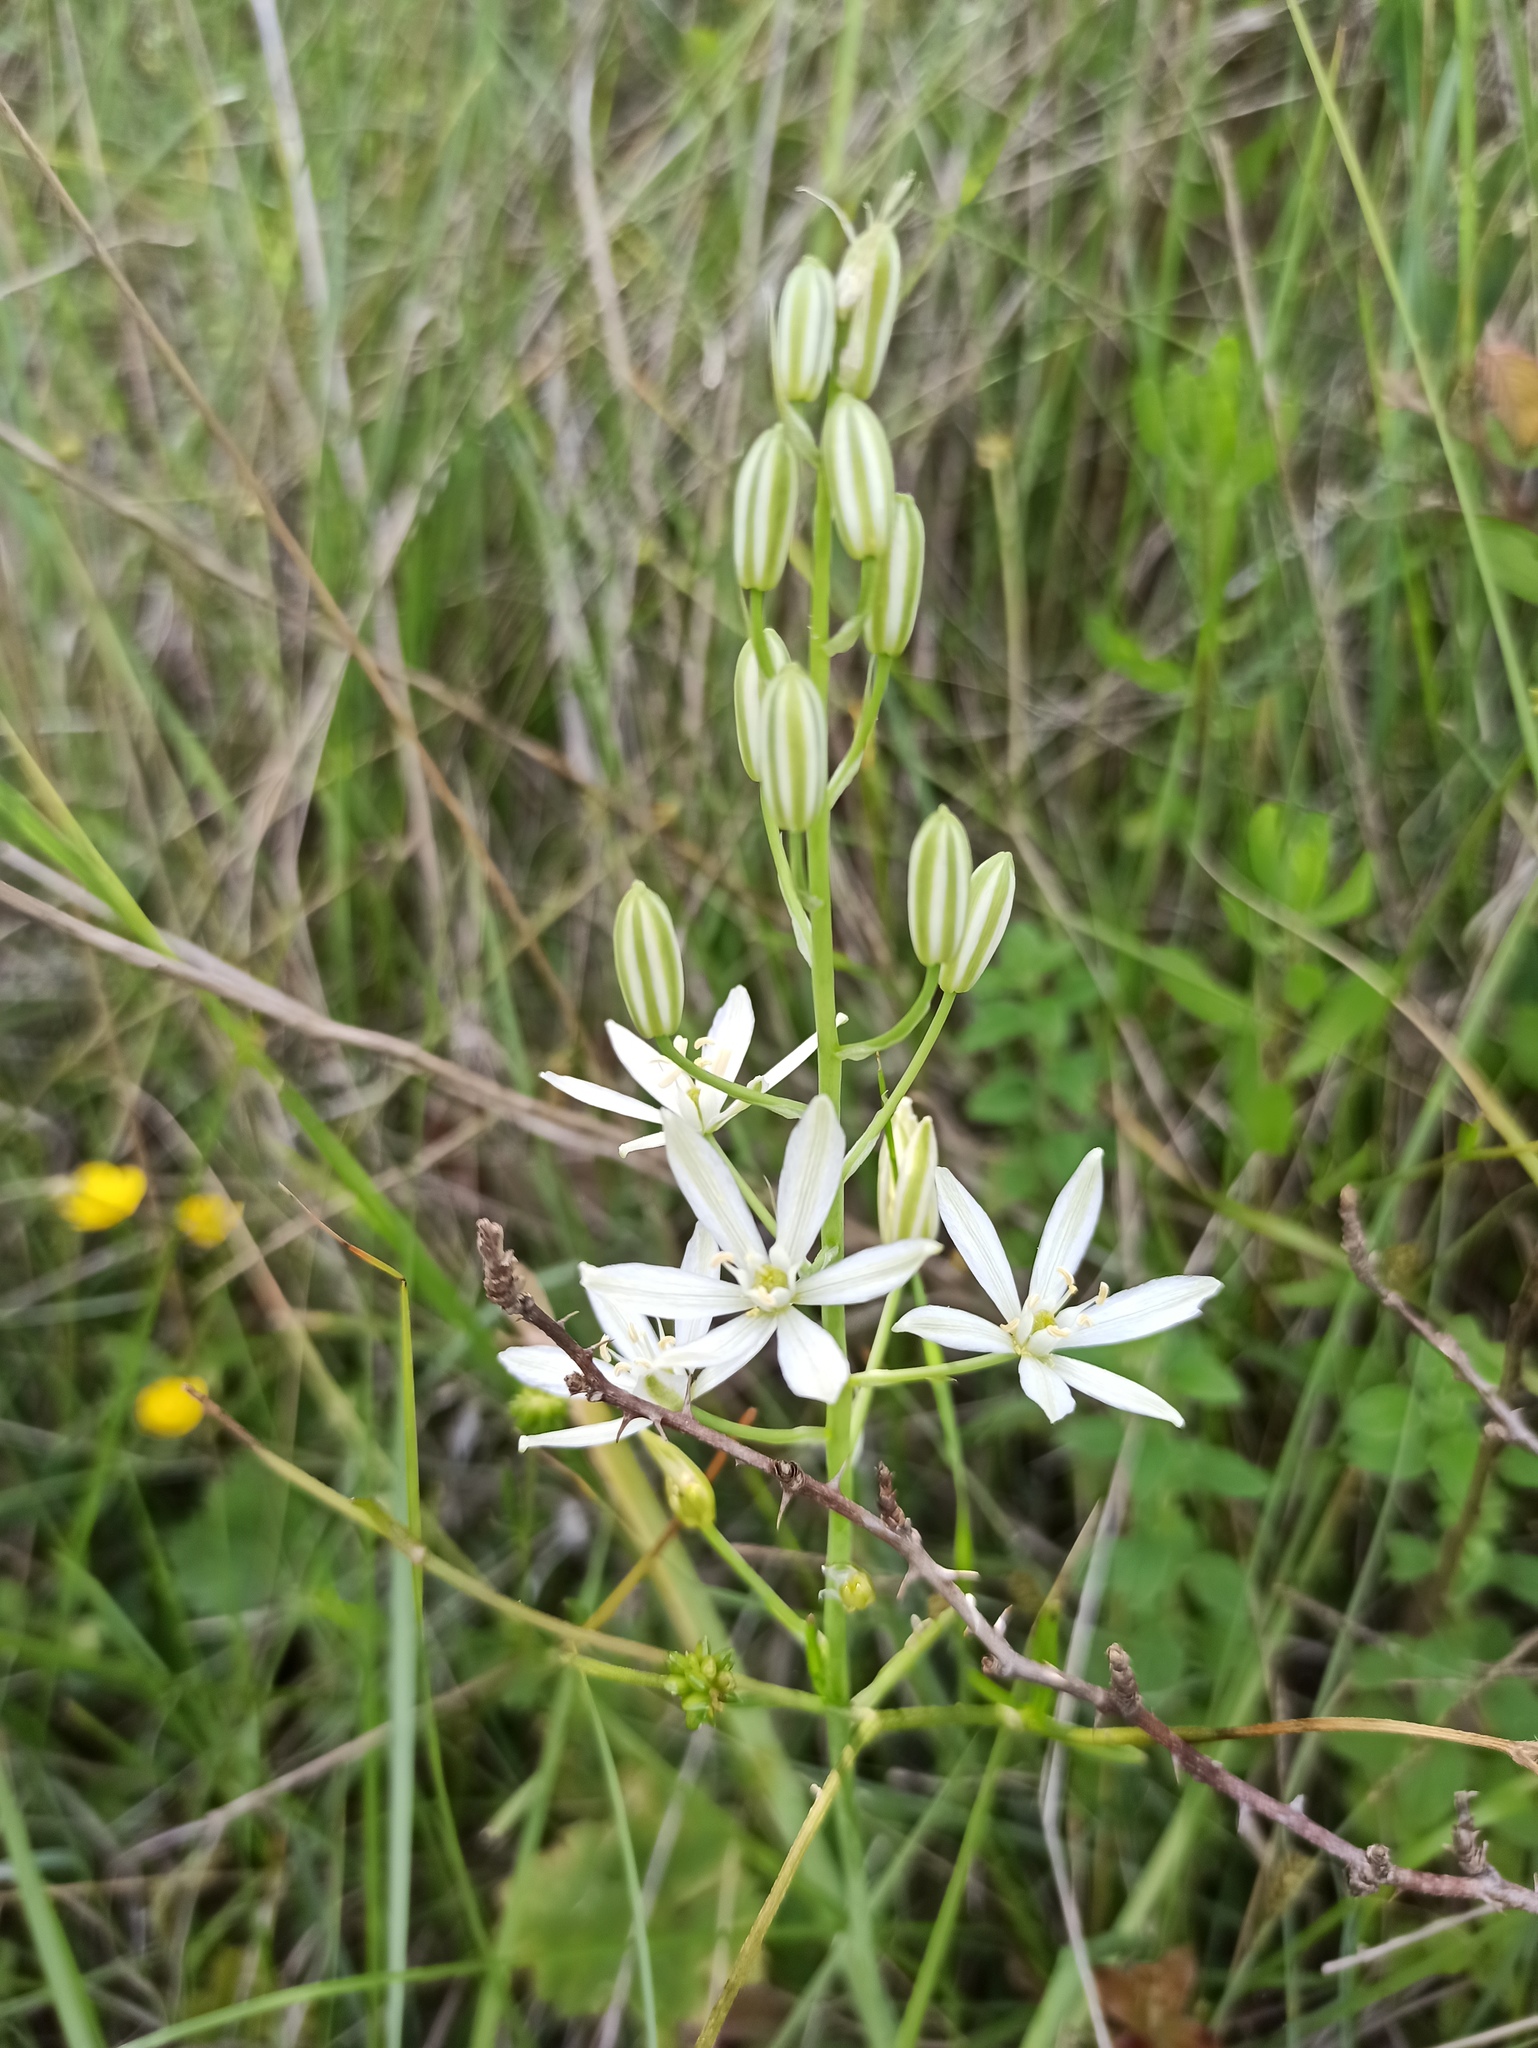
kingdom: Plantae
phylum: Tracheophyta
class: Liliopsida
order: Asparagales
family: Asparagaceae
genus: Ornithogalum
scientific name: Ornithogalum narbonense
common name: Bath-asparagus
